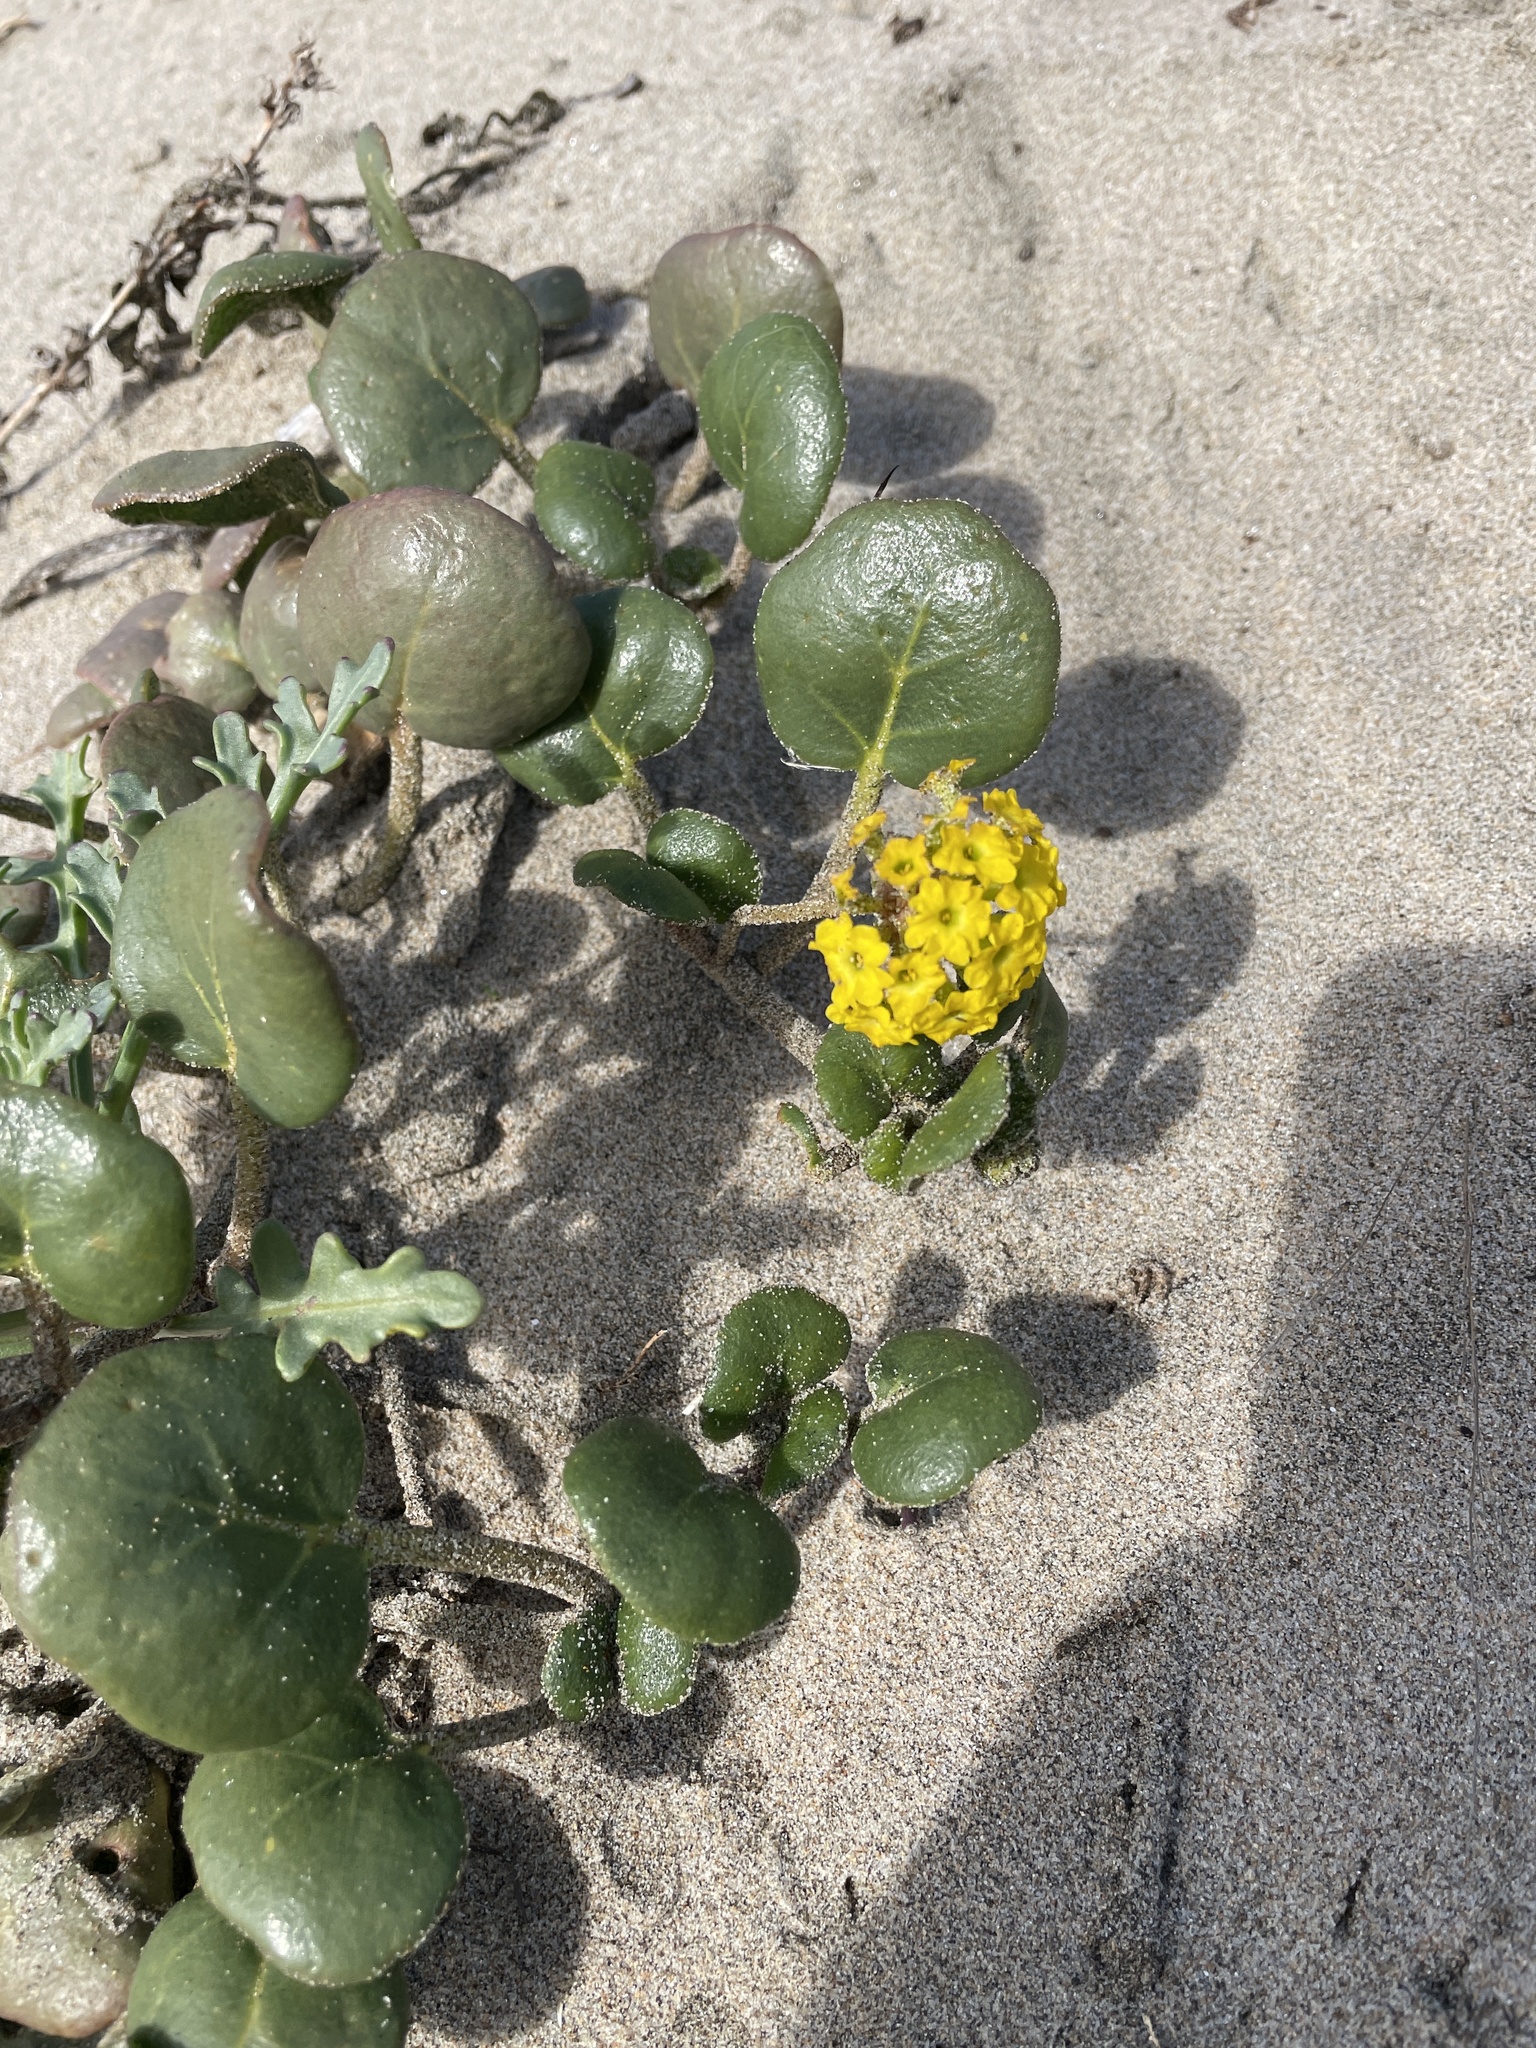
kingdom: Plantae
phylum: Tracheophyta
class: Magnoliopsida
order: Caryophyllales
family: Nyctaginaceae
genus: Abronia
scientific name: Abronia latifolia
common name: Yellow sand-verbena
